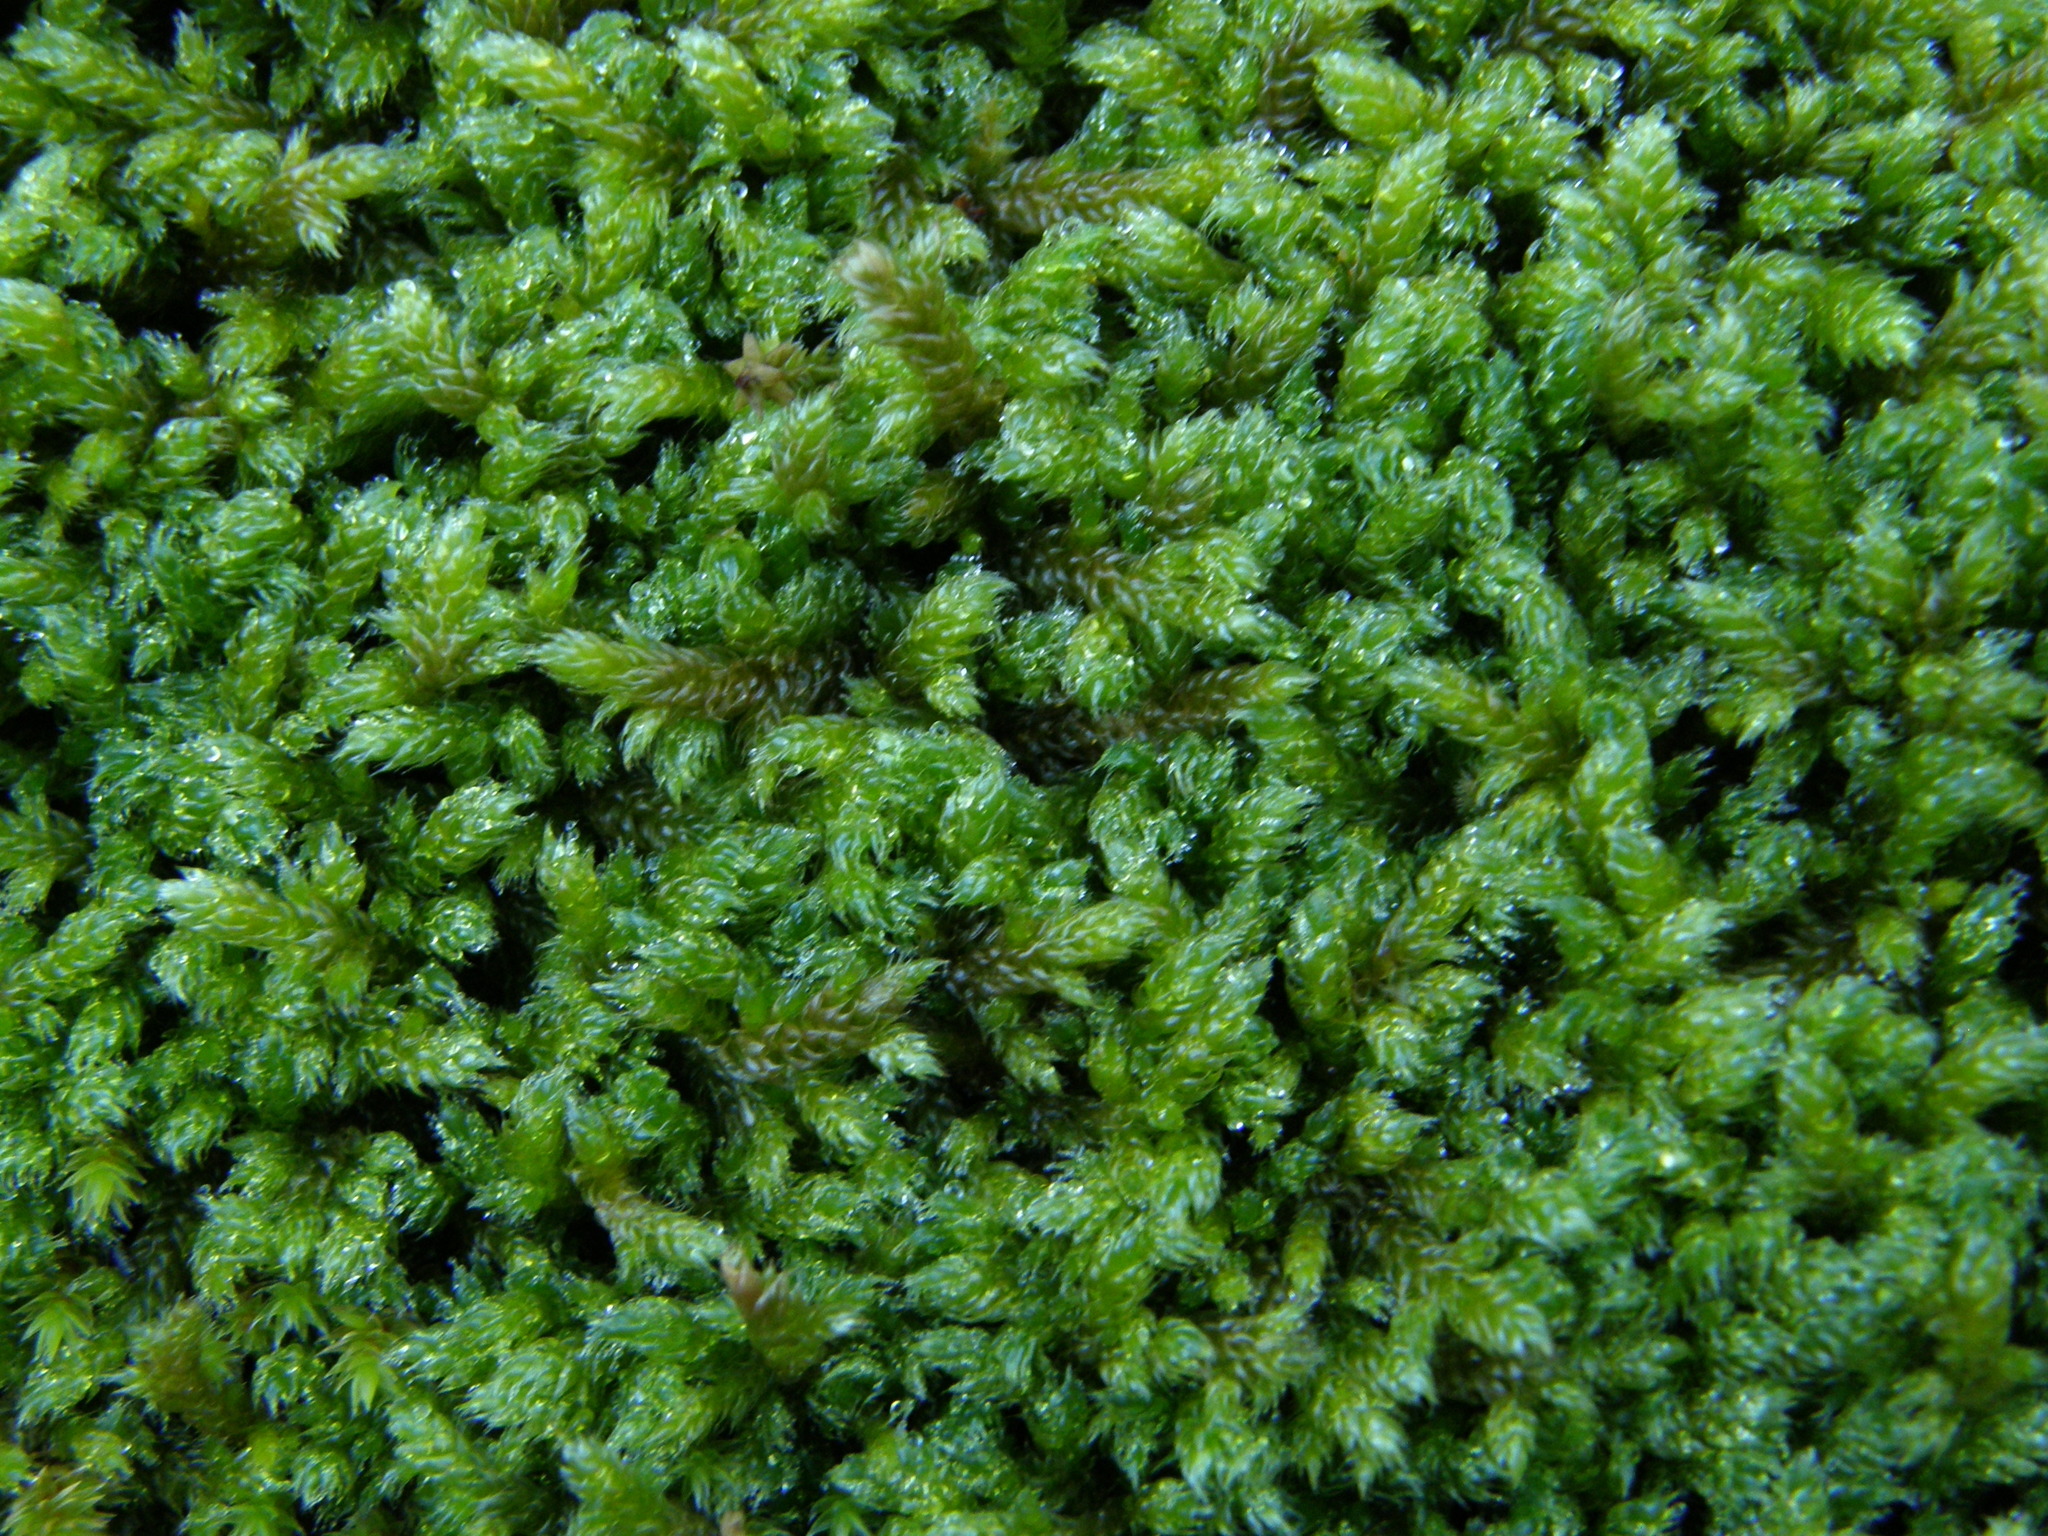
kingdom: Plantae
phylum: Bryophyta
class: Bryopsida
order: Hypnales
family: Hypnaceae
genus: Hypnum
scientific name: Hypnum cupressiforme
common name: Cypress-leaved plait-moss
